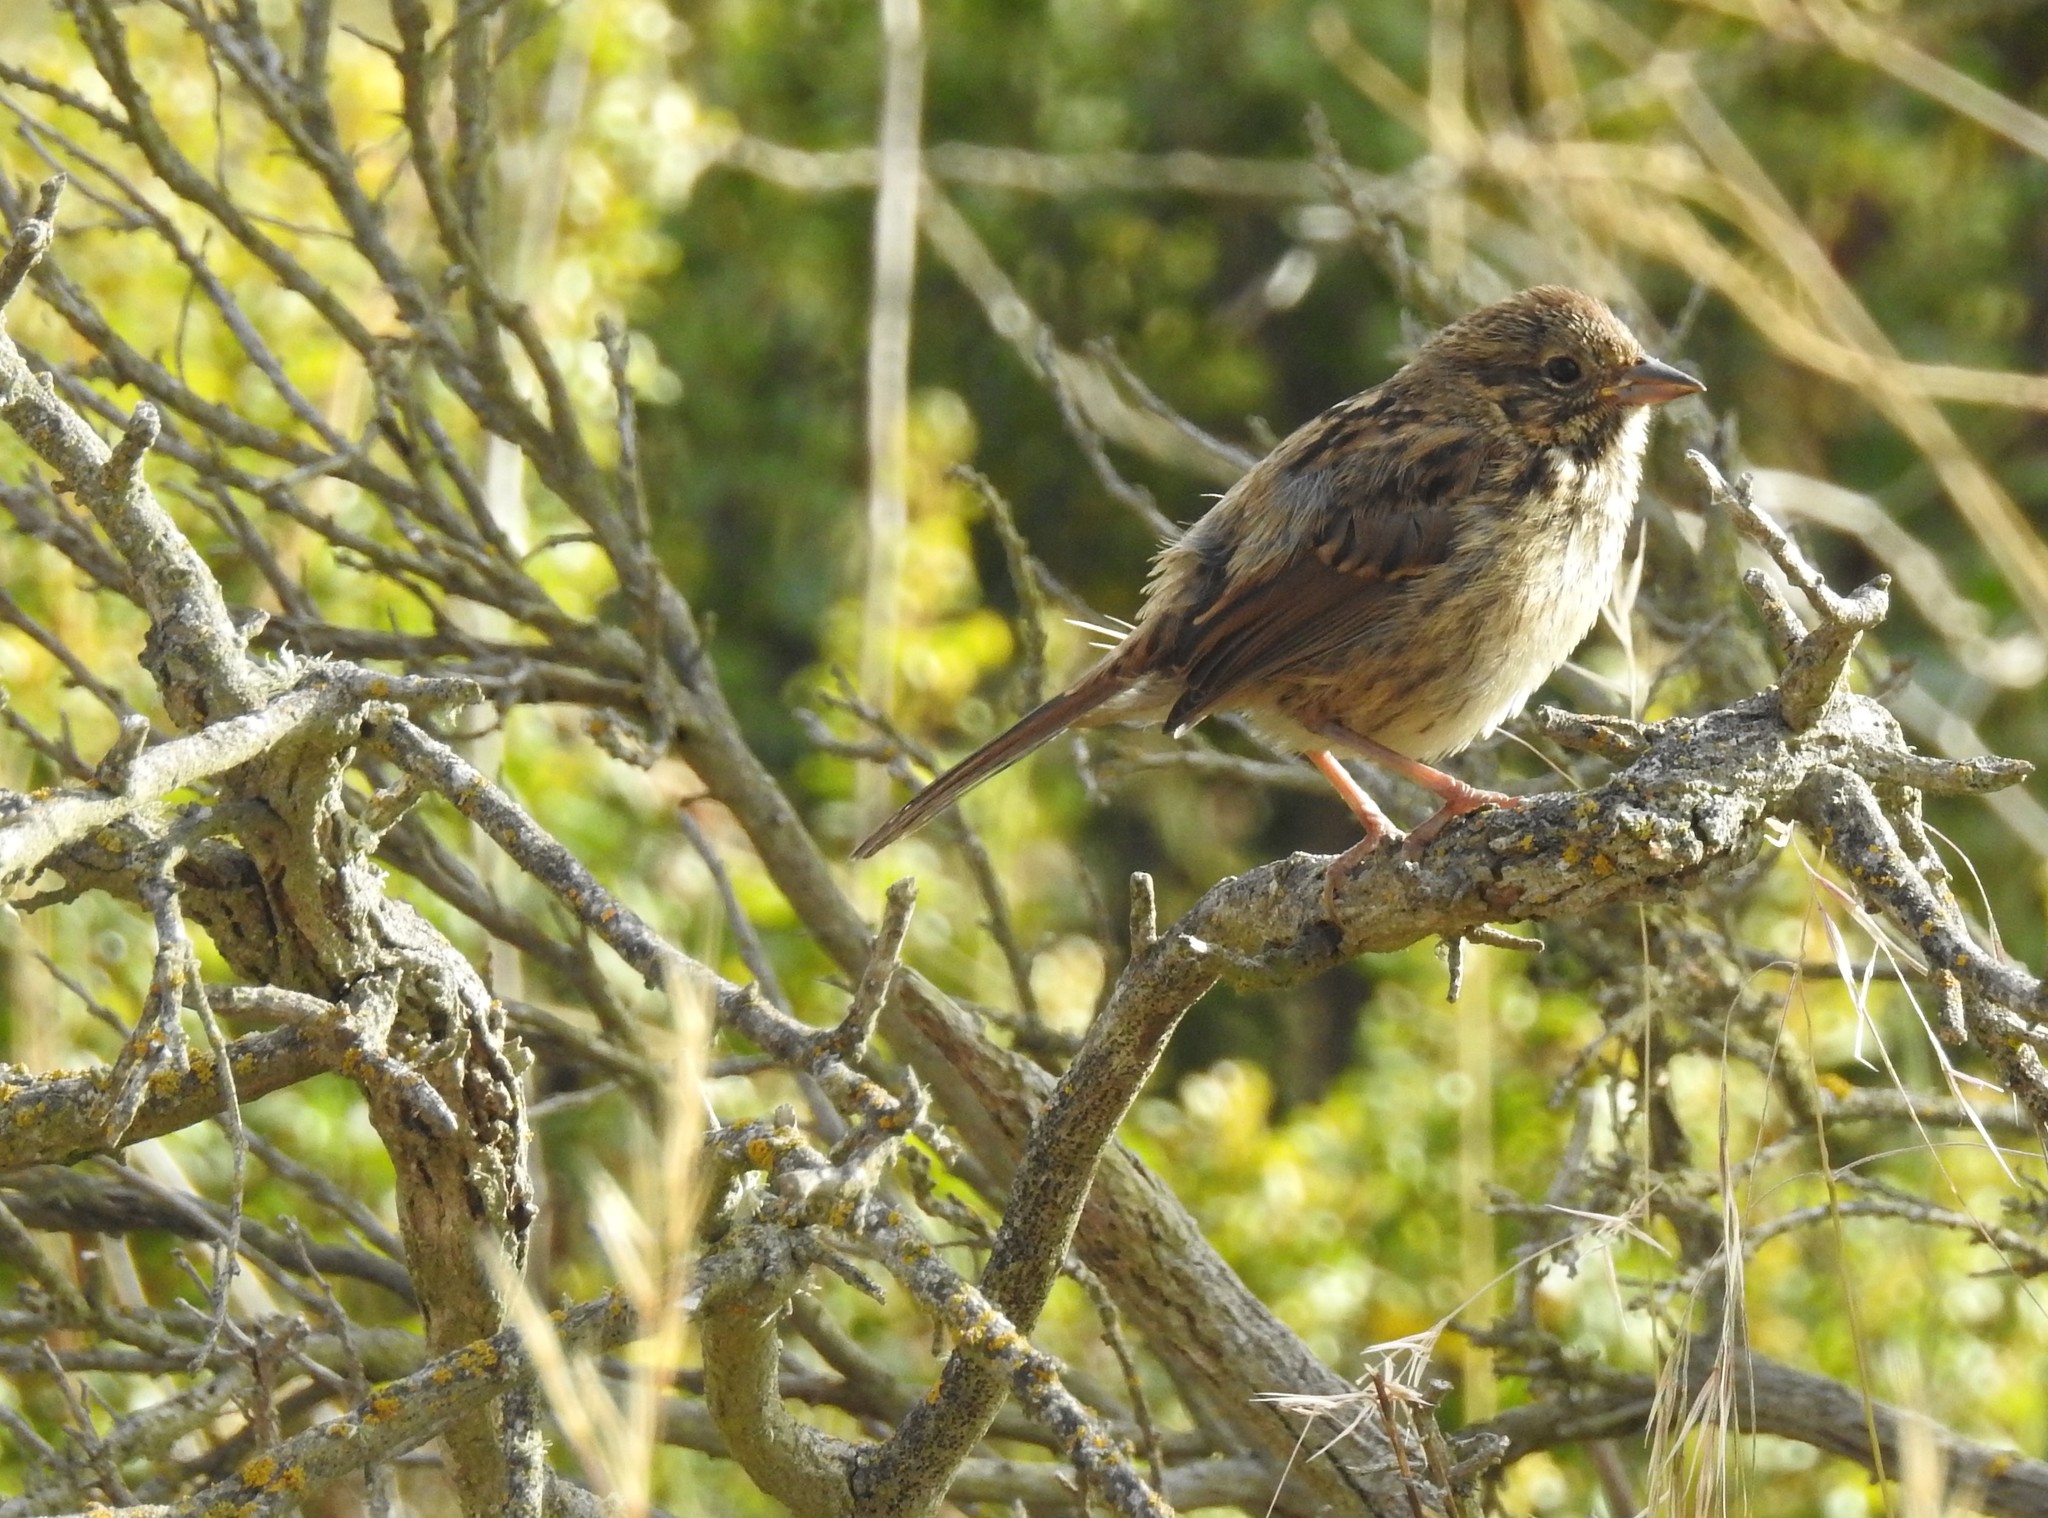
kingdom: Animalia
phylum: Chordata
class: Aves
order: Passeriformes
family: Passerellidae
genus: Melospiza
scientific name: Melospiza lincolnii
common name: Lincoln's sparrow
